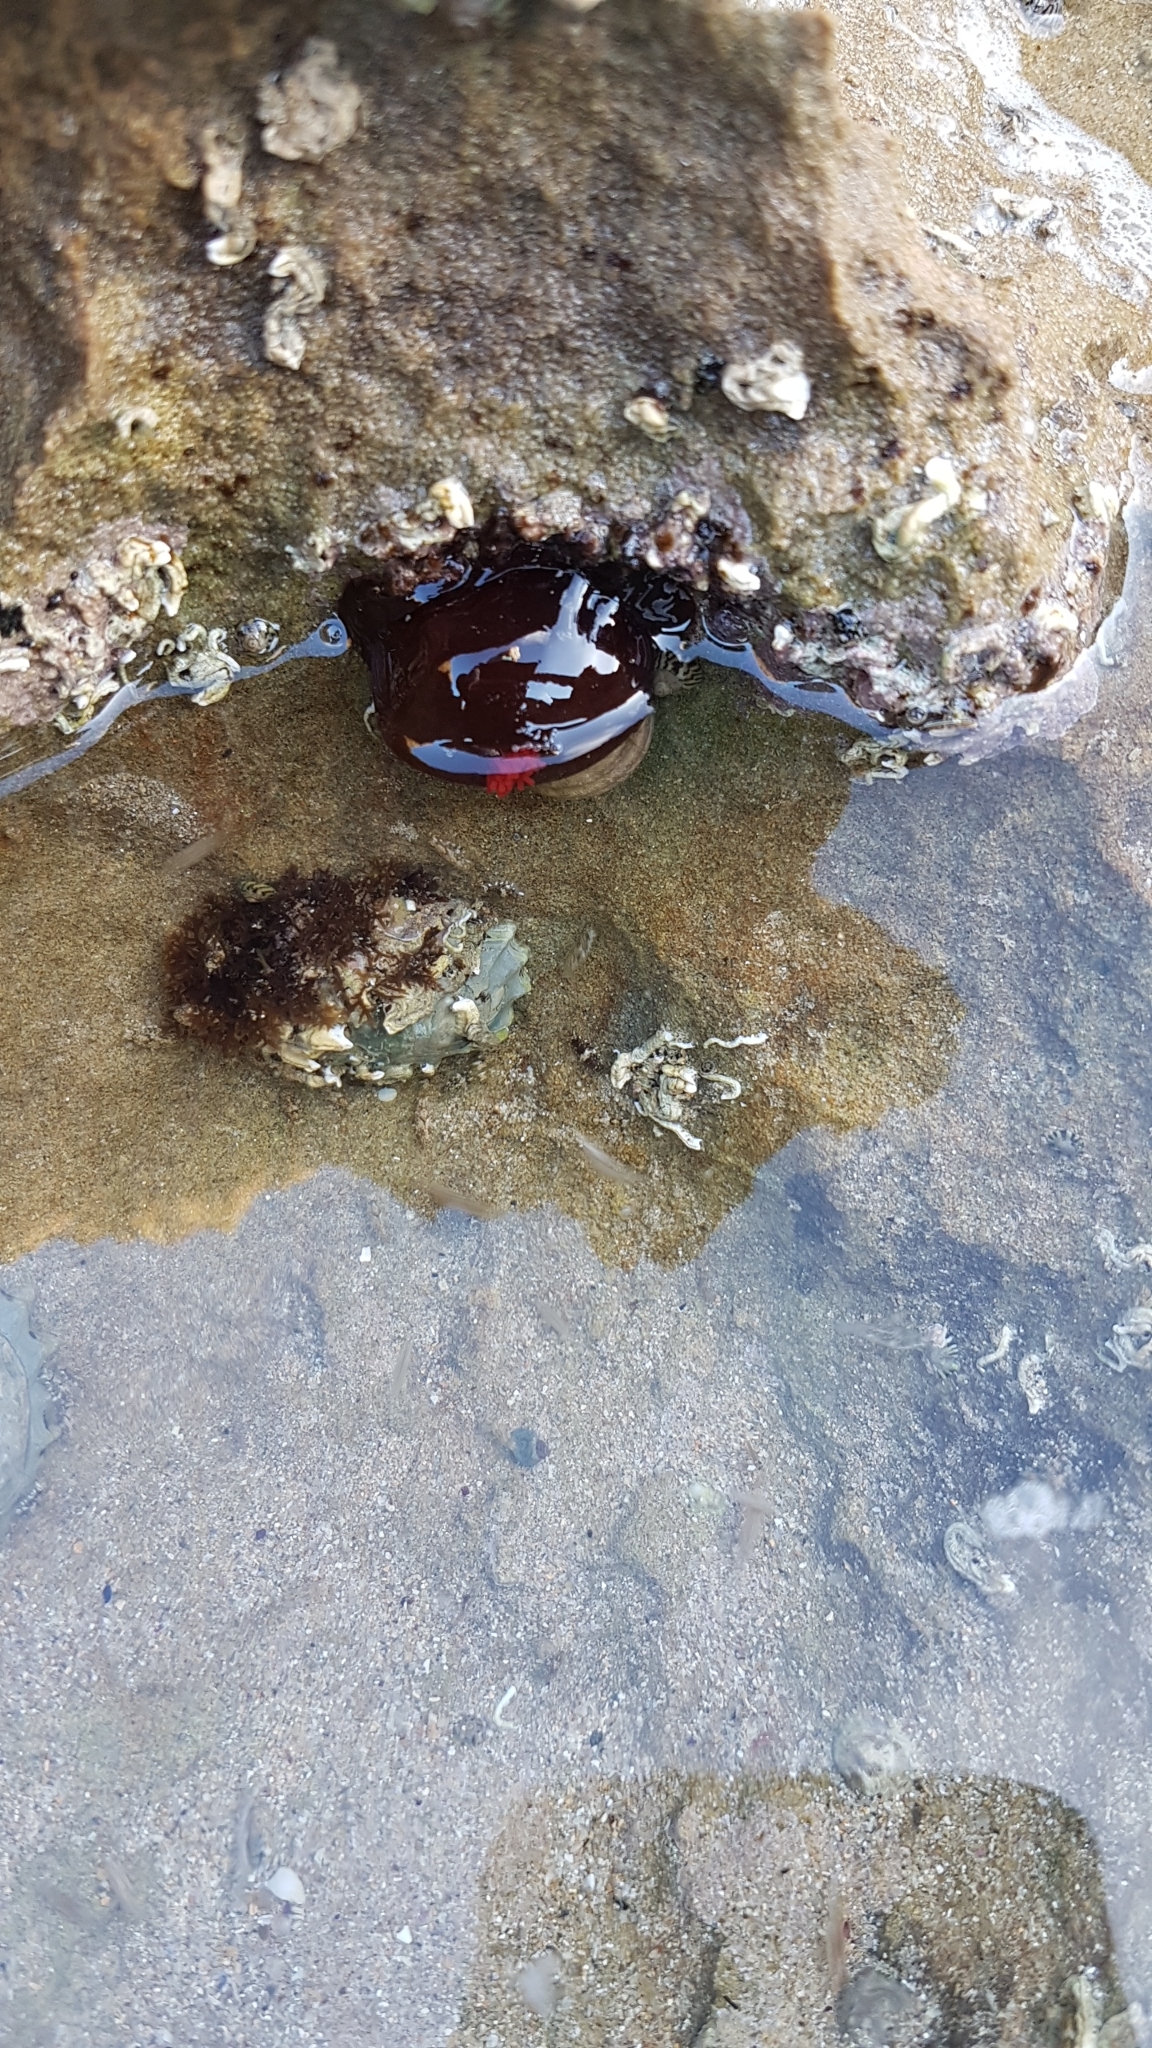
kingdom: Animalia
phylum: Cnidaria
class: Anthozoa
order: Actiniaria
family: Actiniidae
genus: Actinia
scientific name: Actinia tenebrosa
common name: Waratah anemone
